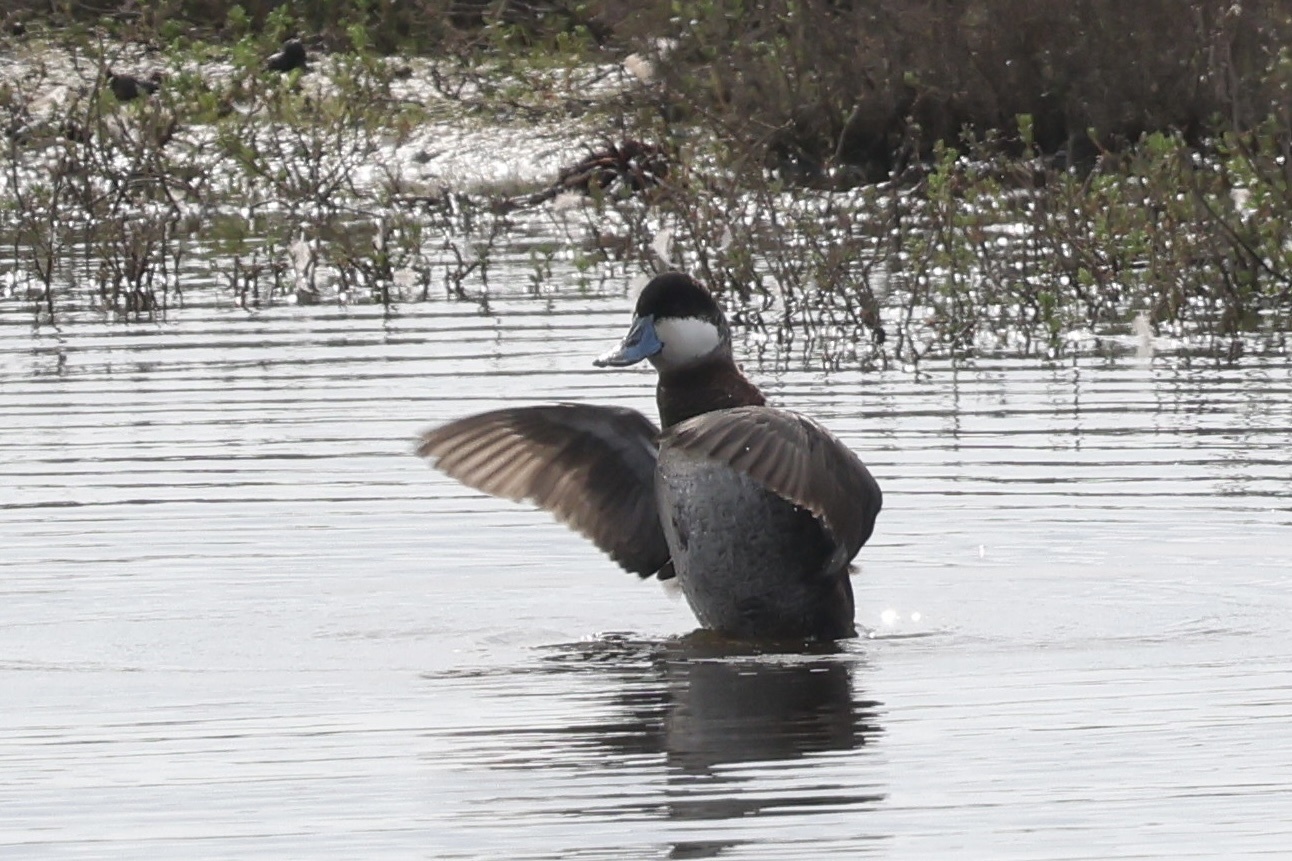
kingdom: Animalia
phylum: Chordata
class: Aves
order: Anseriformes
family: Anatidae
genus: Oxyura
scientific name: Oxyura jamaicensis
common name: Ruddy duck
